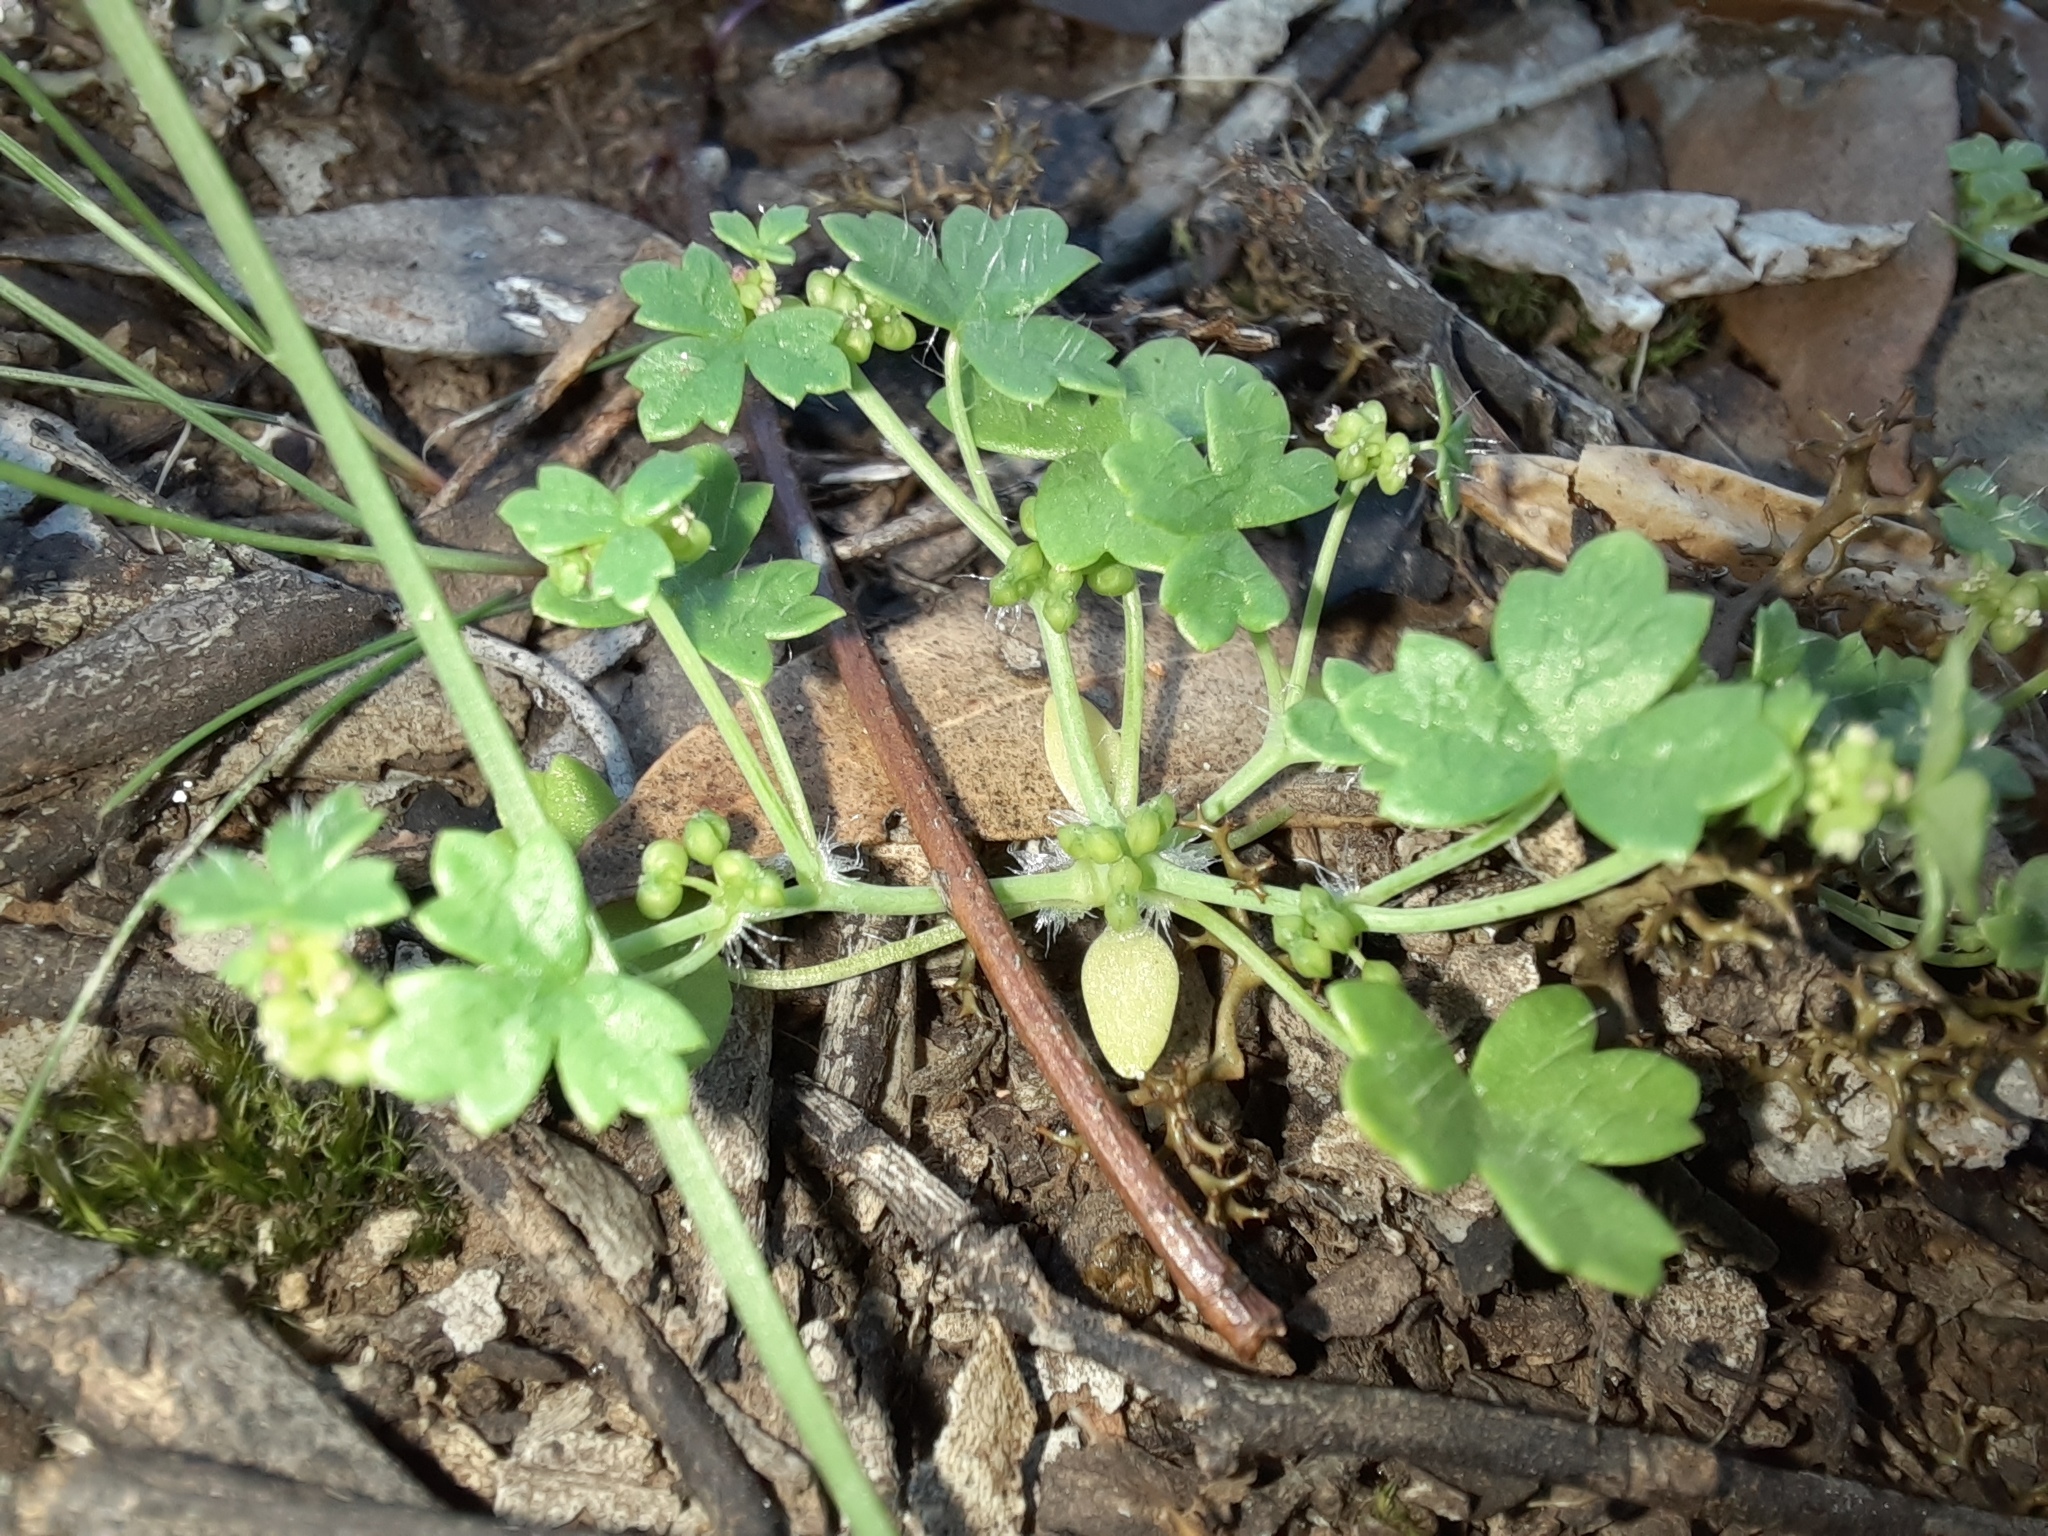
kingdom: Plantae
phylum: Tracheophyta
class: Magnoliopsida
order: Apiales
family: Araliaceae
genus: Hydrocotyle
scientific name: Hydrocotyle foveolata
